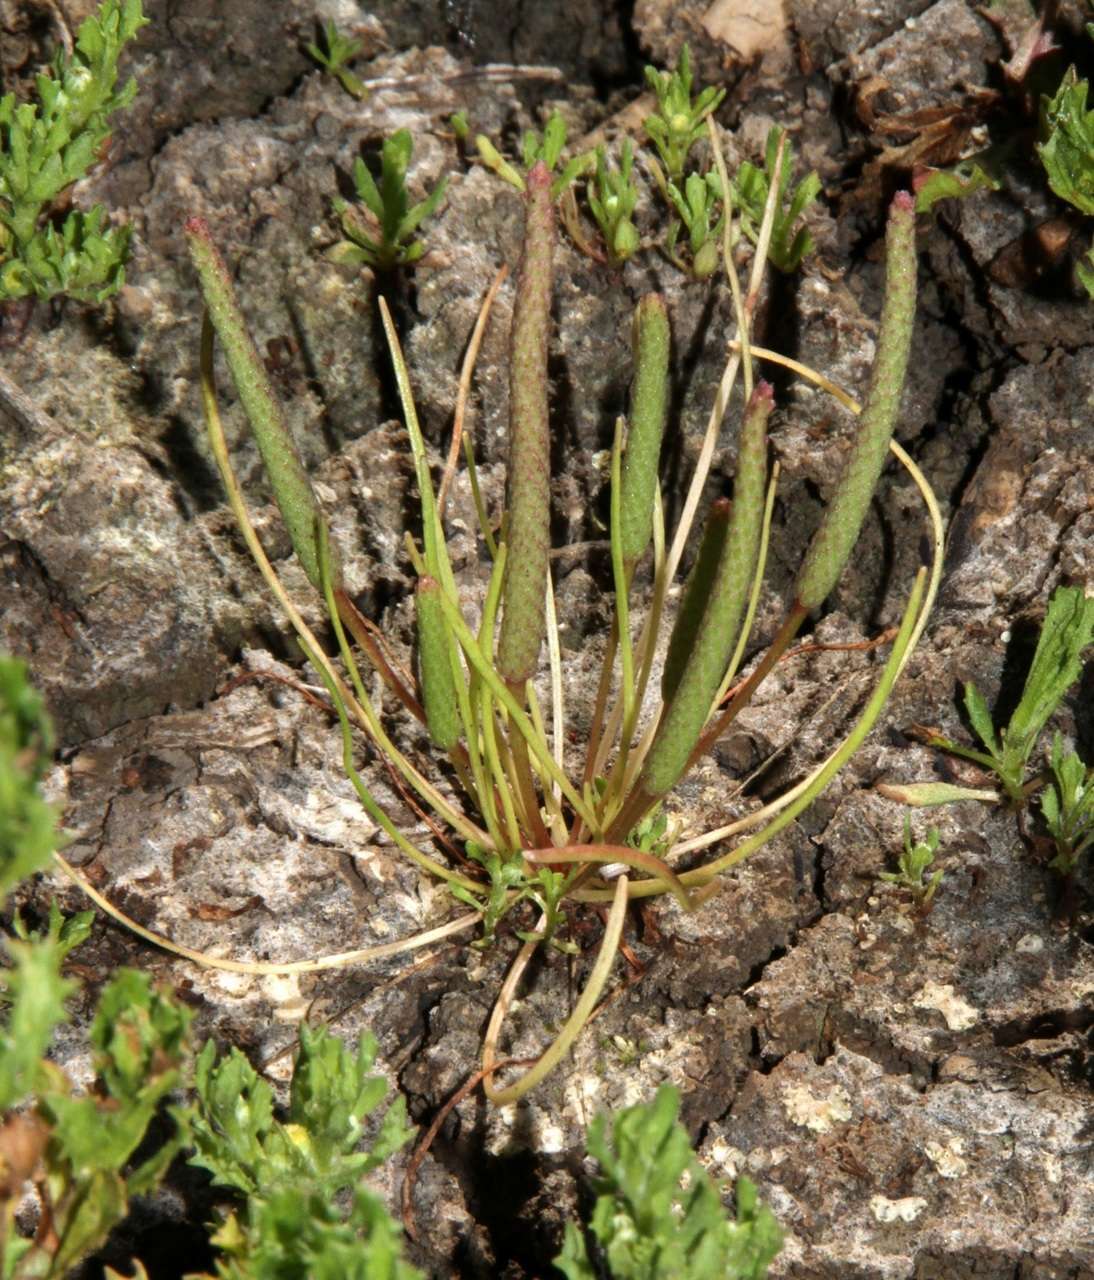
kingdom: Plantae
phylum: Tracheophyta
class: Magnoliopsida
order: Ranunculales
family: Ranunculaceae
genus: Myosurus
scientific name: Myosurus australis
